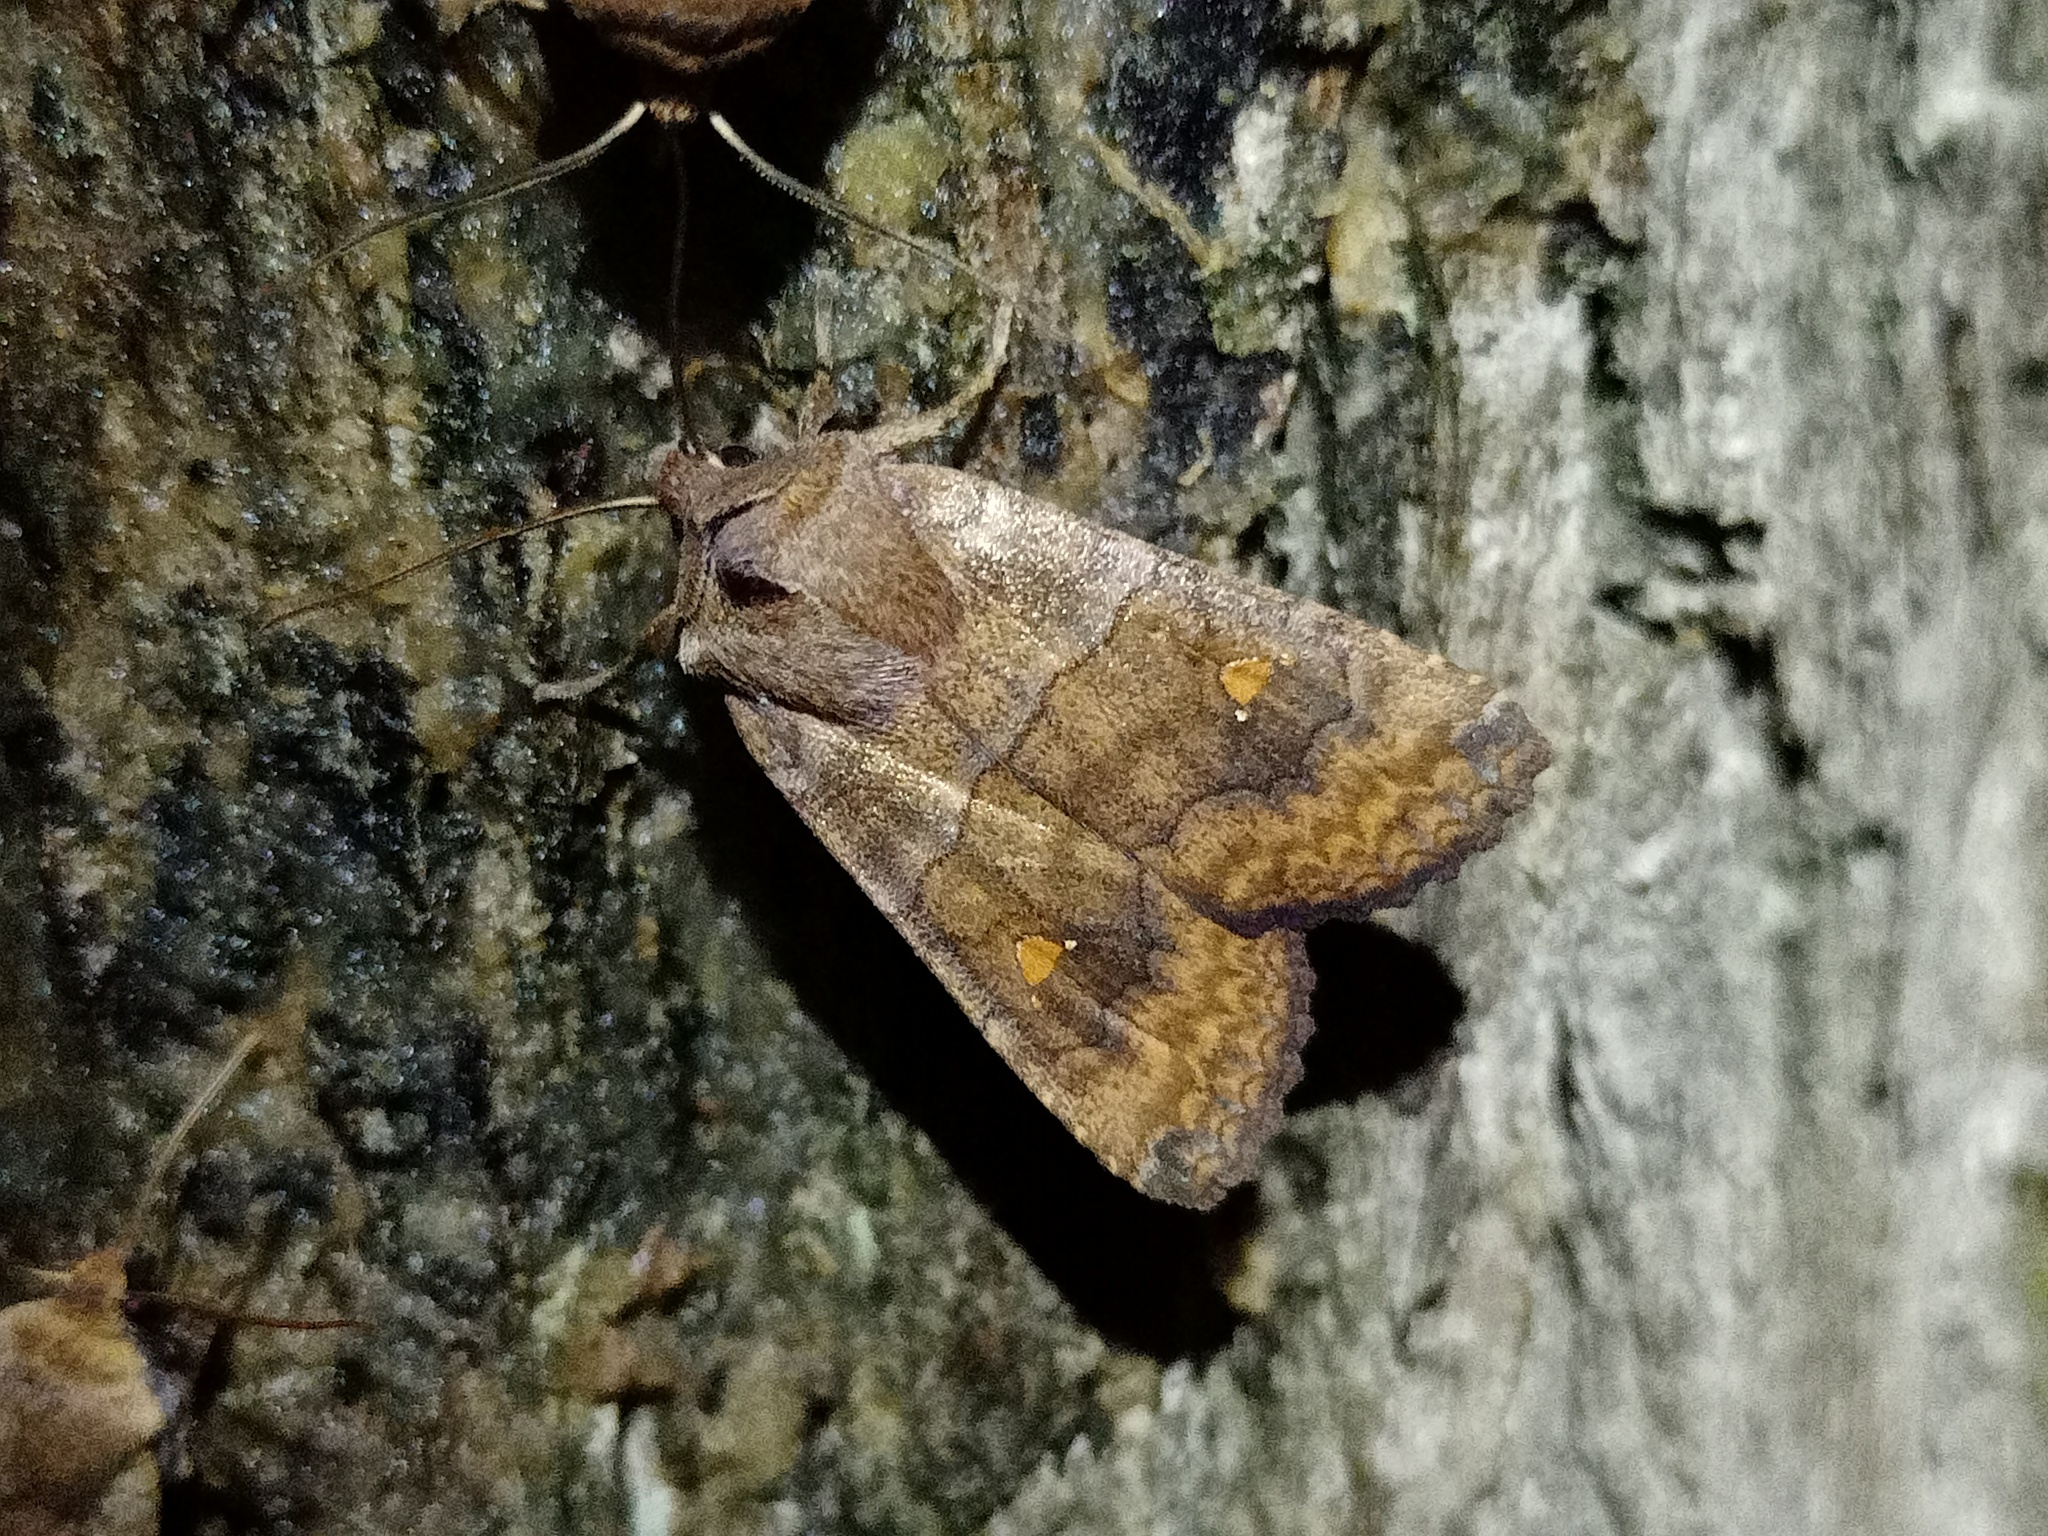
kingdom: Animalia
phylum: Arthropoda
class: Insecta
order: Lepidoptera
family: Noctuidae
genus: Eupsilia
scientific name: Eupsilia transversa
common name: Satellite
